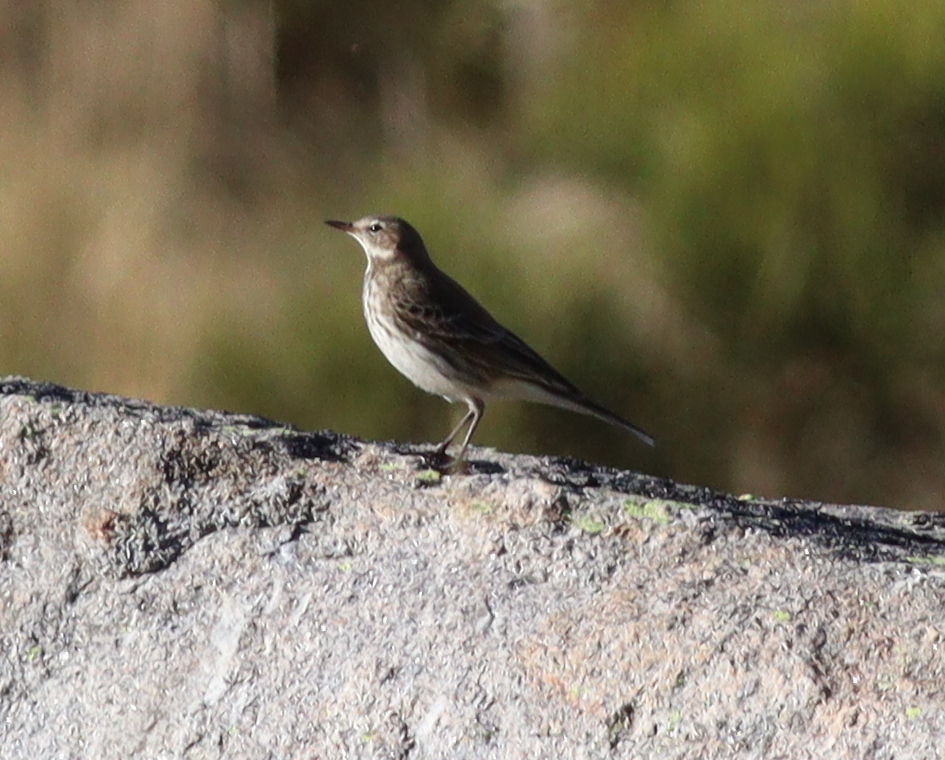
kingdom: Animalia
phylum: Chordata
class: Aves
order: Passeriformes
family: Motacillidae
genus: Anthus
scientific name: Anthus spinoletta
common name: Water pipit
